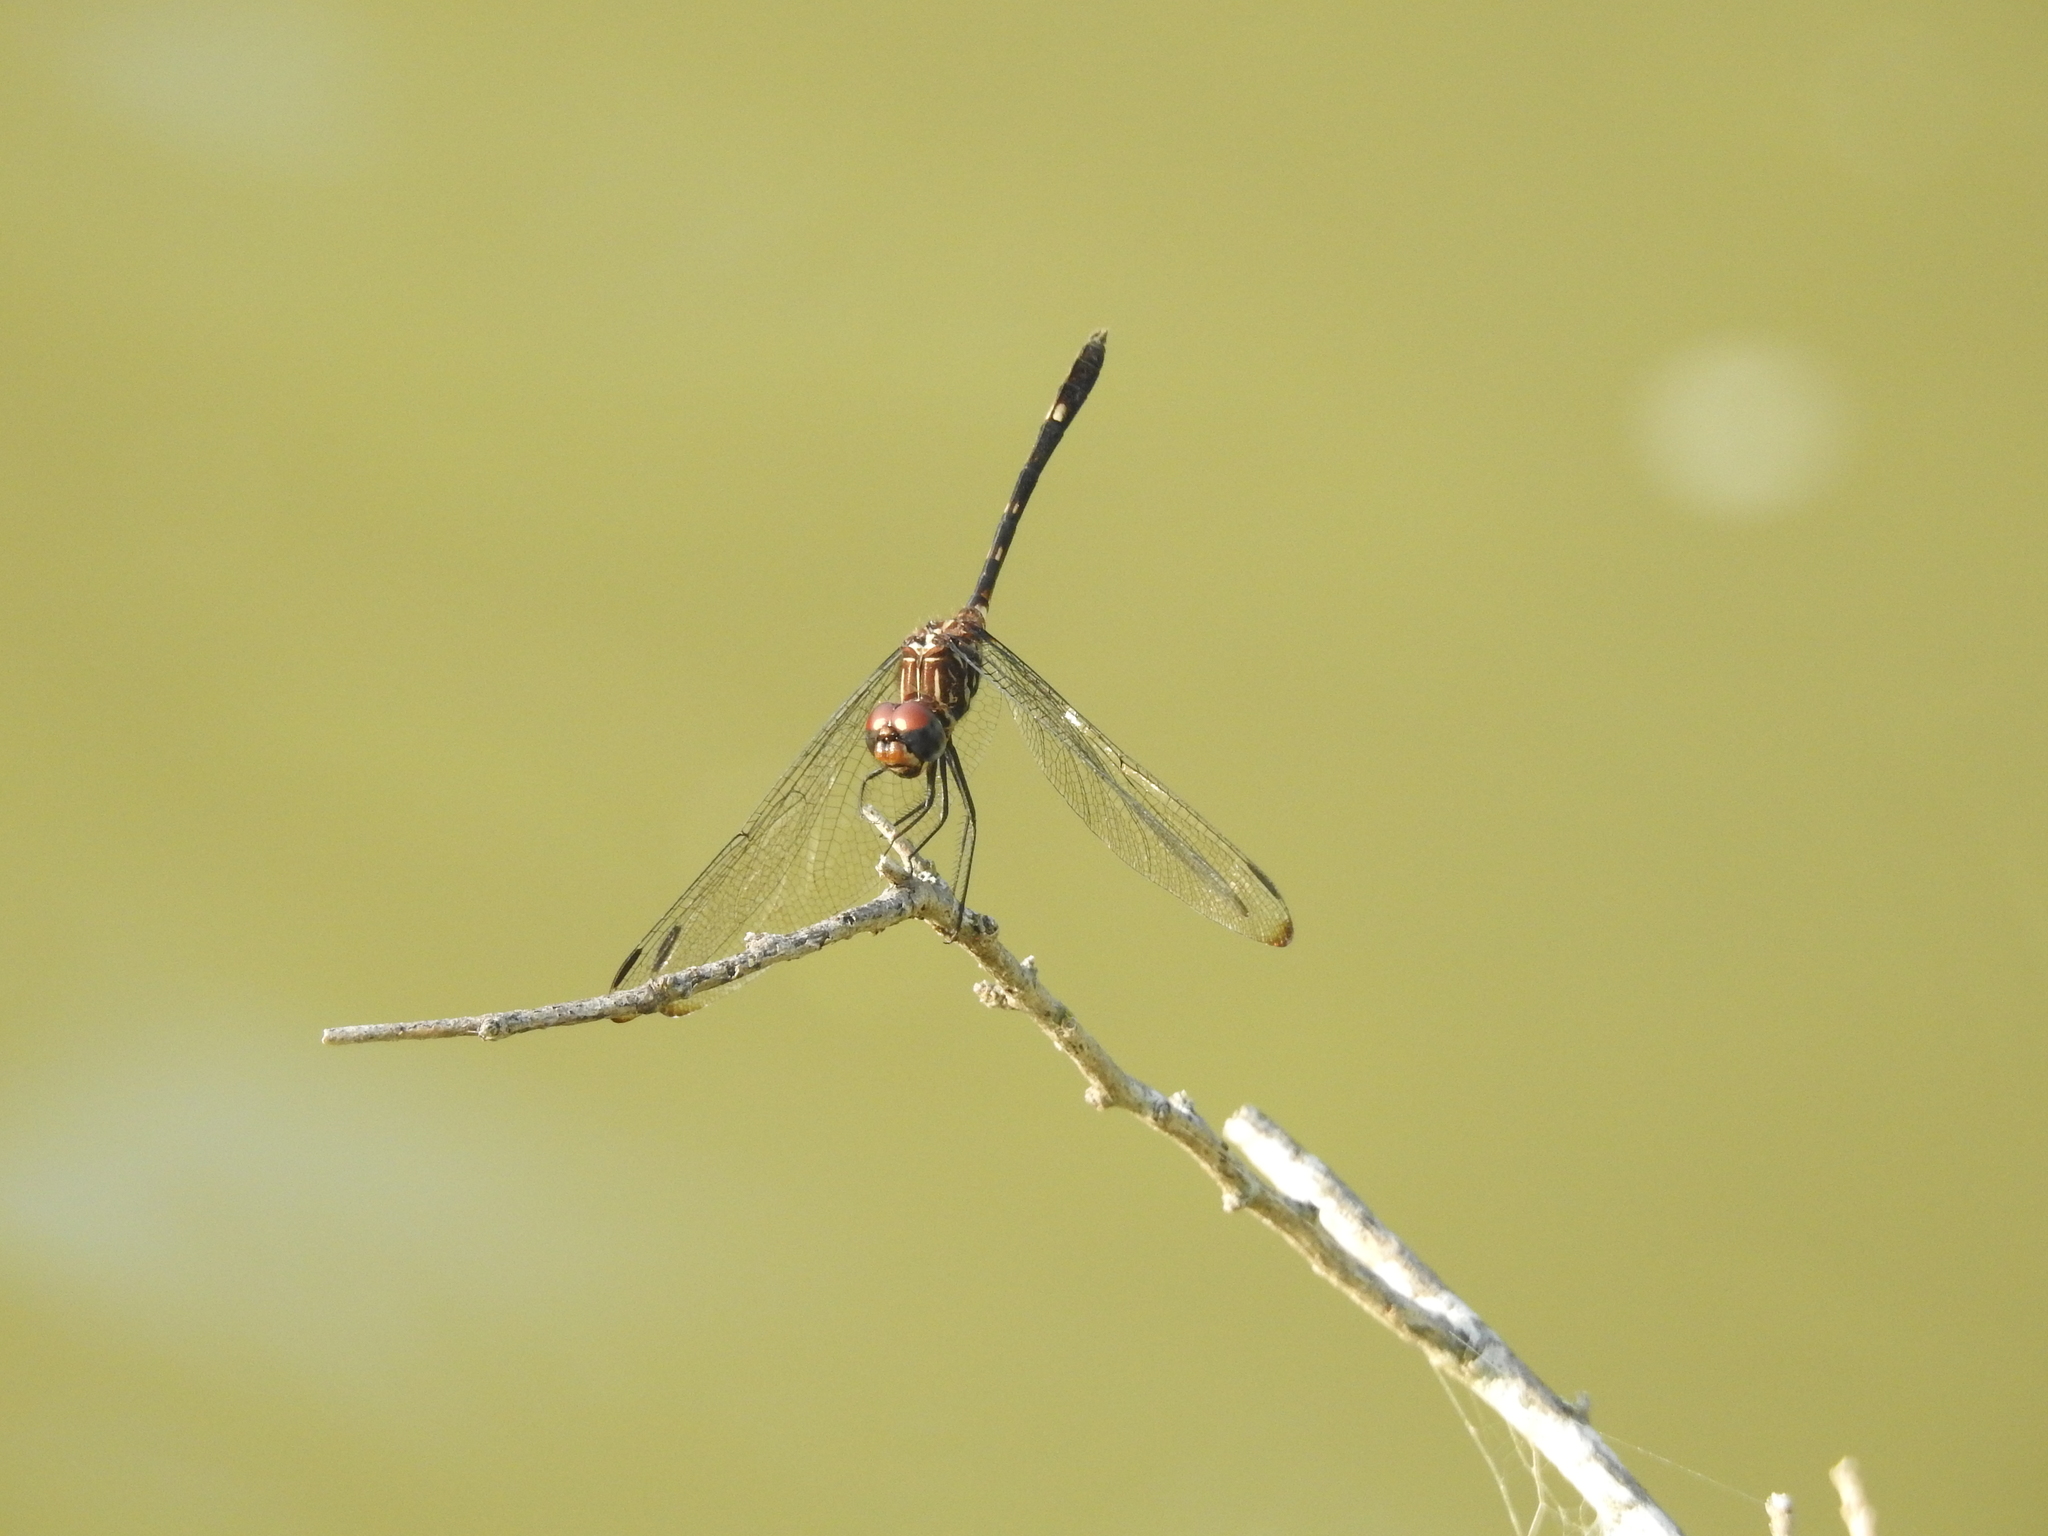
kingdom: Animalia
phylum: Arthropoda
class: Insecta
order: Odonata
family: Libellulidae
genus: Dythemis
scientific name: Dythemis velox
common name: Swift setwing
